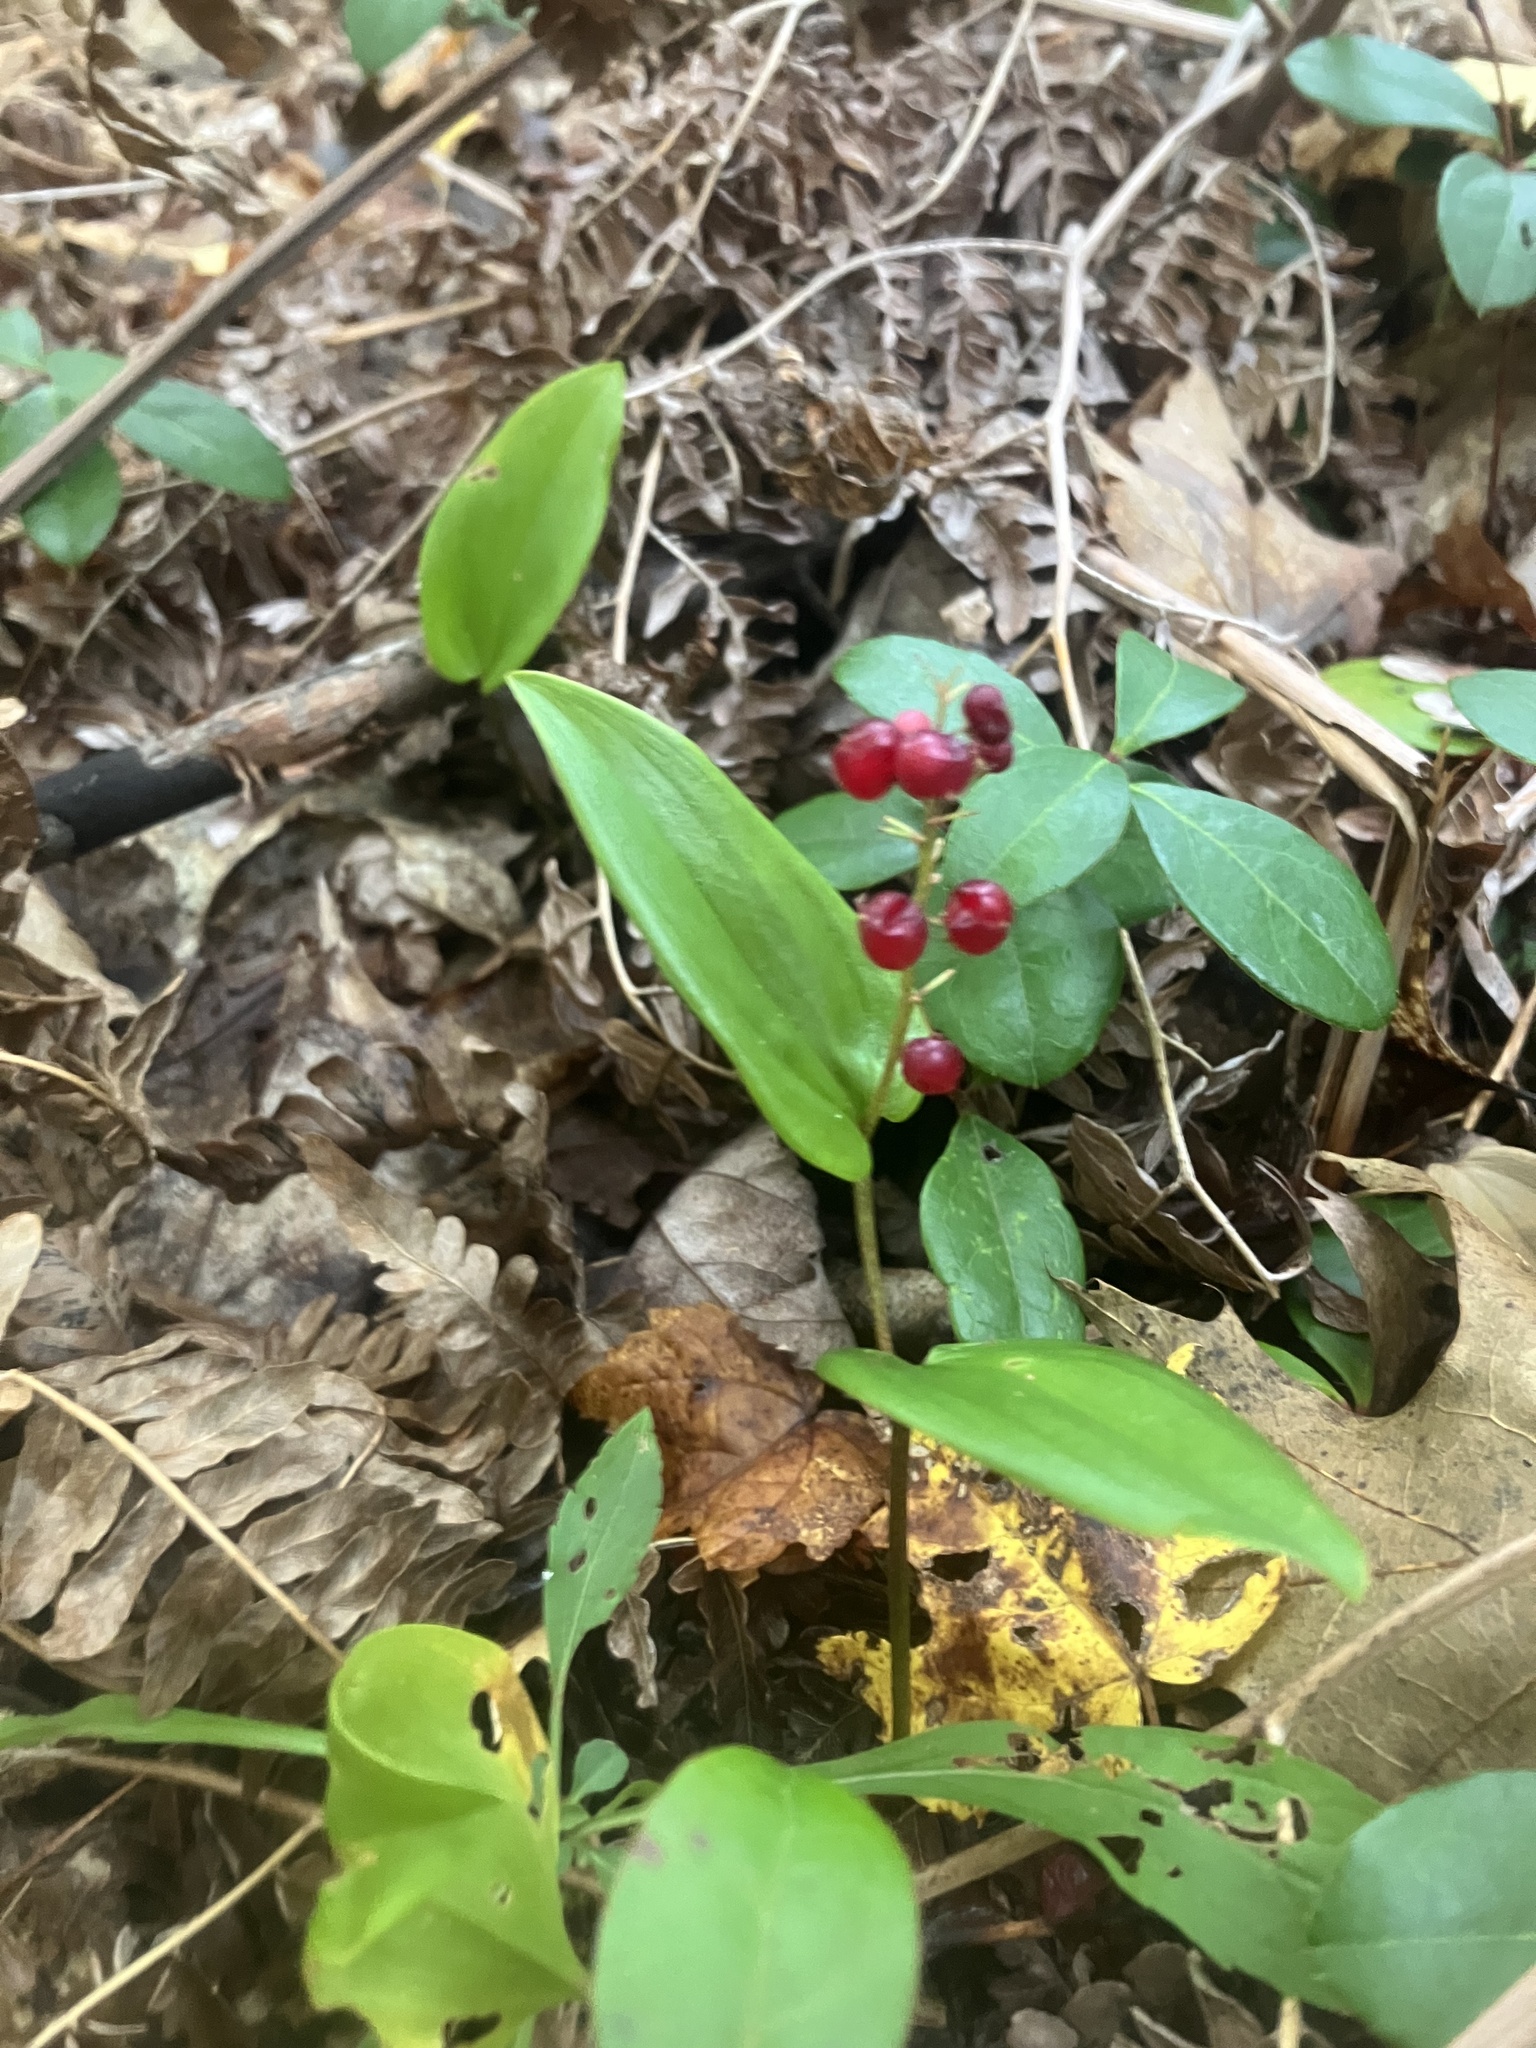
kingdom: Plantae
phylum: Tracheophyta
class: Liliopsida
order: Asparagales
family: Asparagaceae
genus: Maianthemum
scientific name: Maianthemum canadense
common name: False lily-of-the-valley
